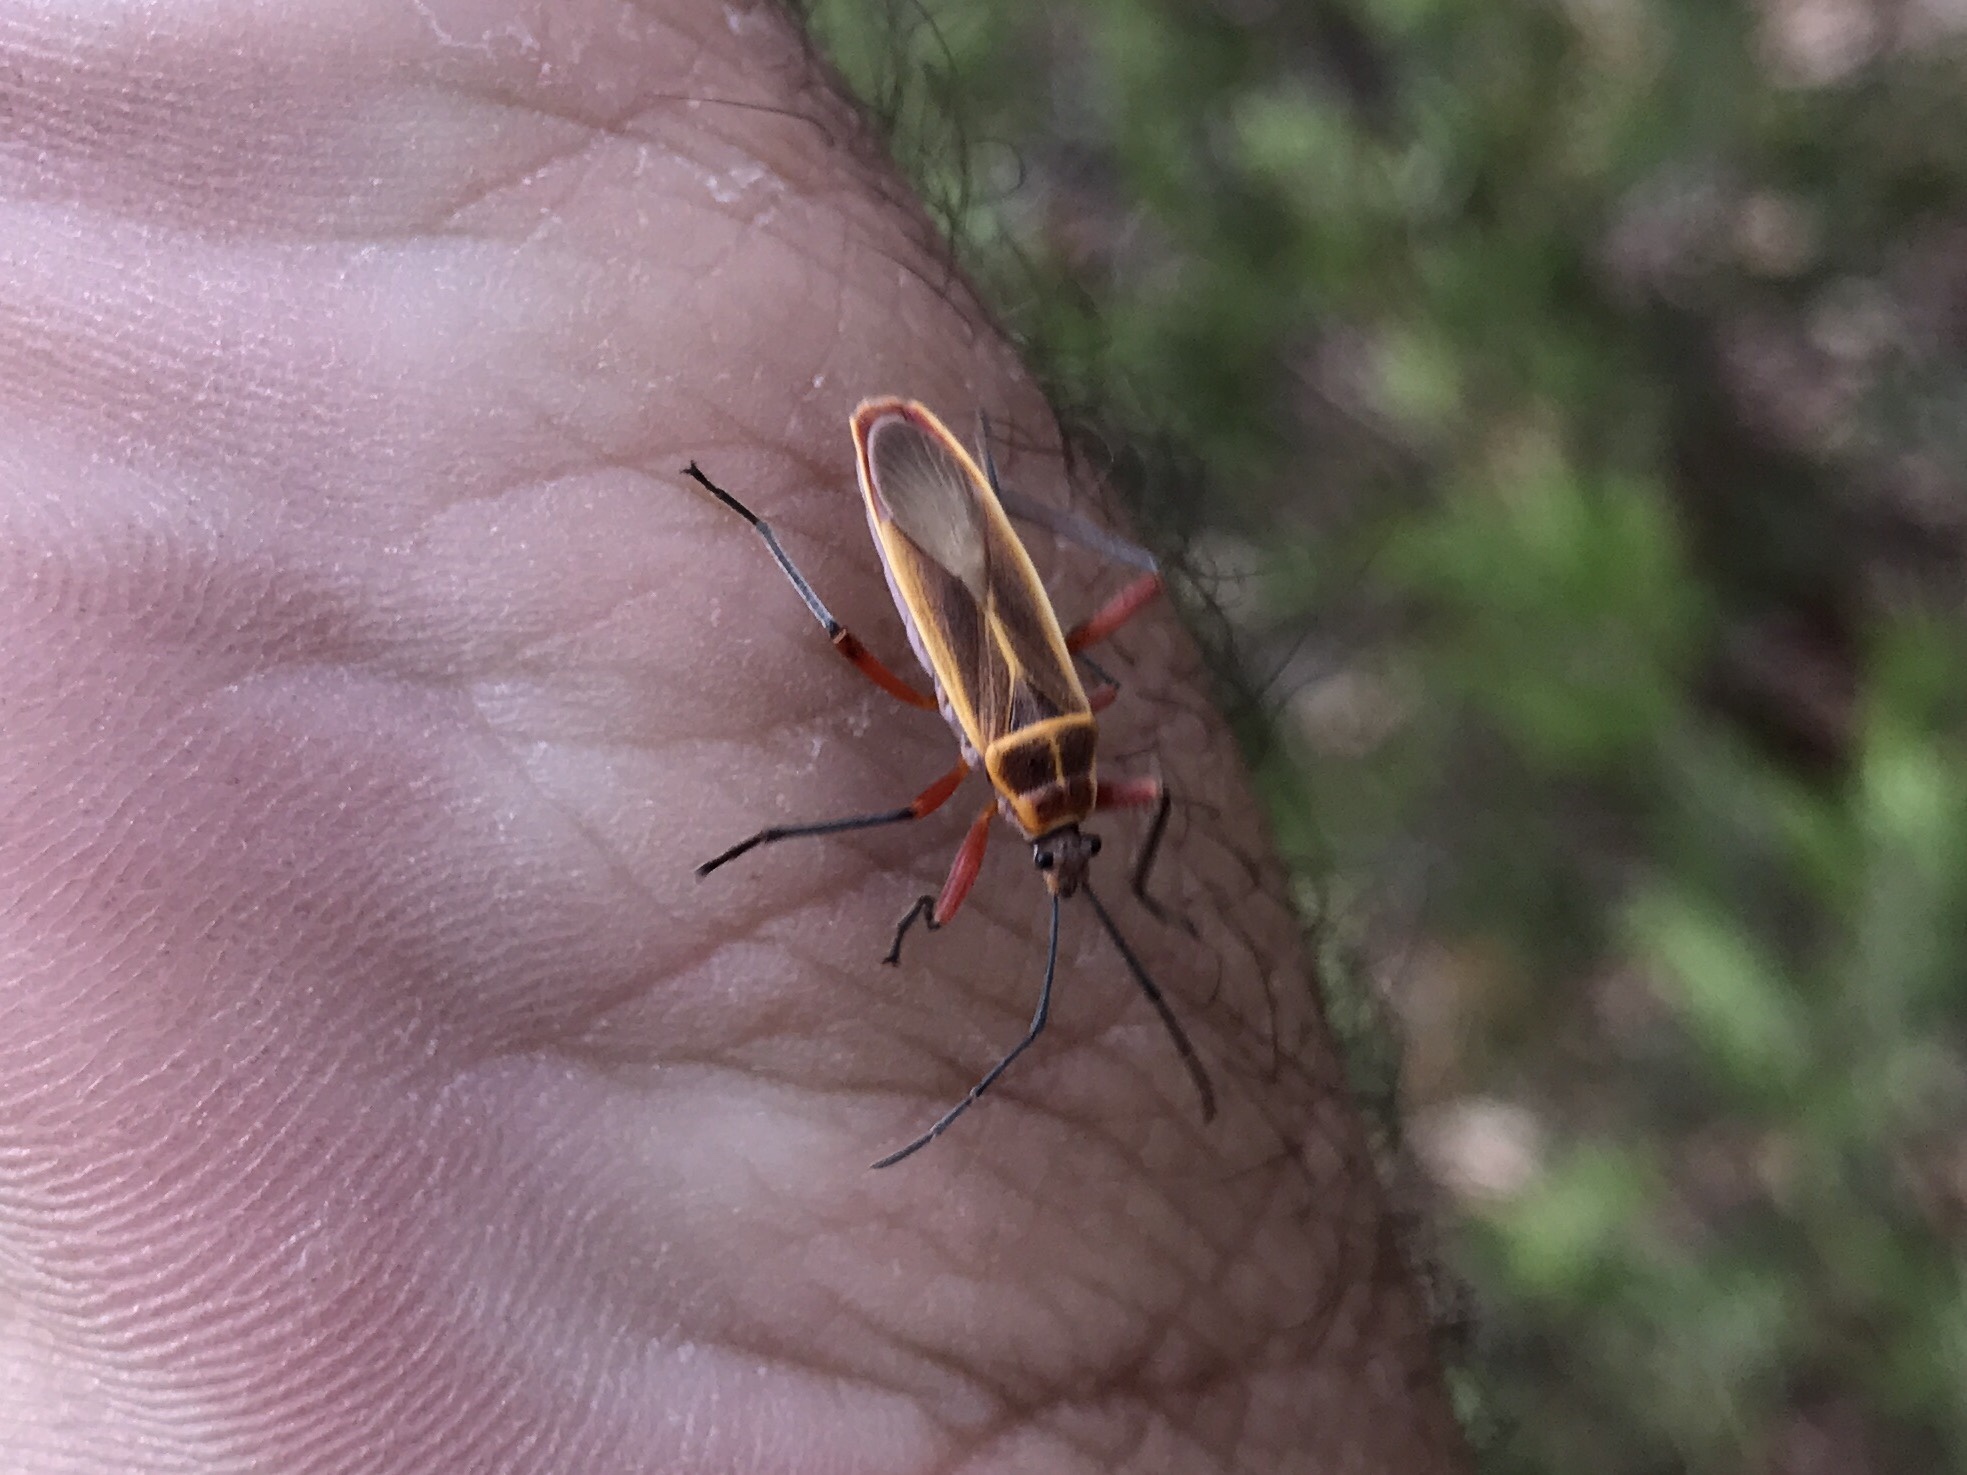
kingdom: Animalia
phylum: Arthropoda
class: Insecta
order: Hemiptera
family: Largidae
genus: Stenomacra
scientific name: Stenomacra marginella
